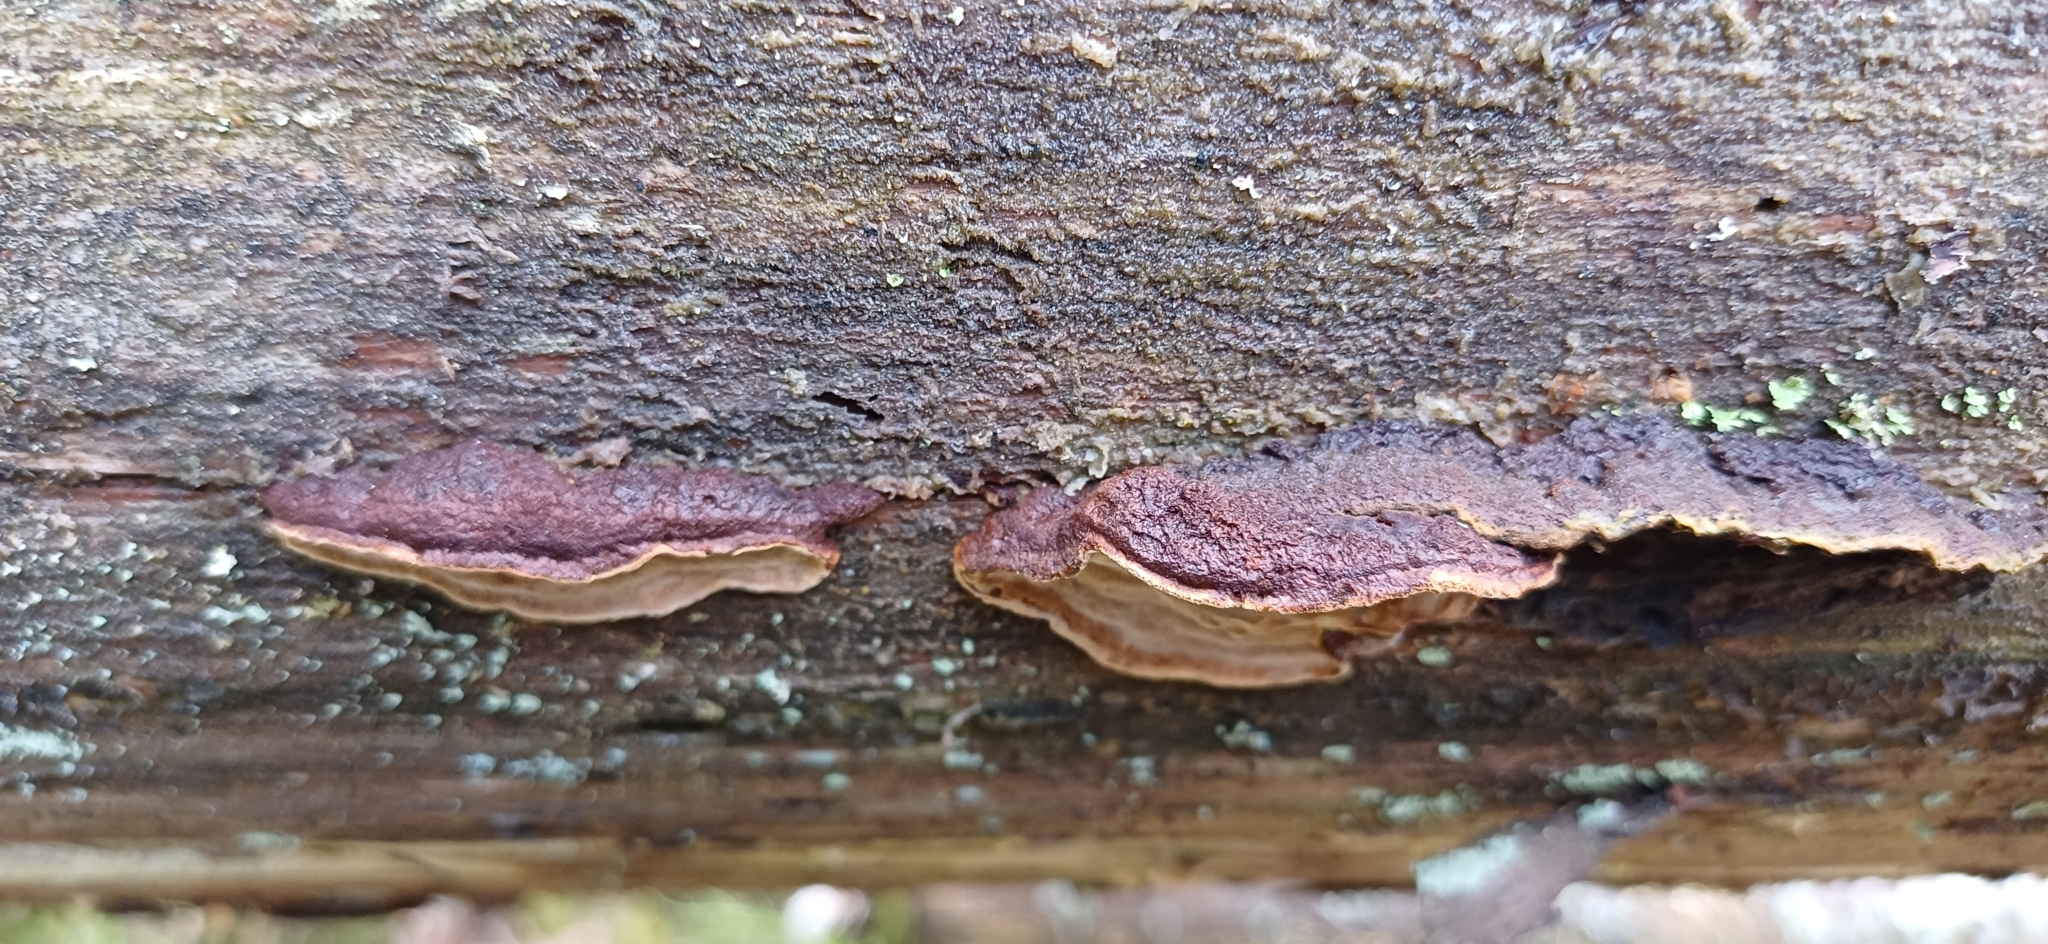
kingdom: Fungi
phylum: Basidiomycota
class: Agaricomycetes
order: Hymenochaetales
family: Hymenochaetaceae
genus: Phellinus
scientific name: Phellinus viticola
